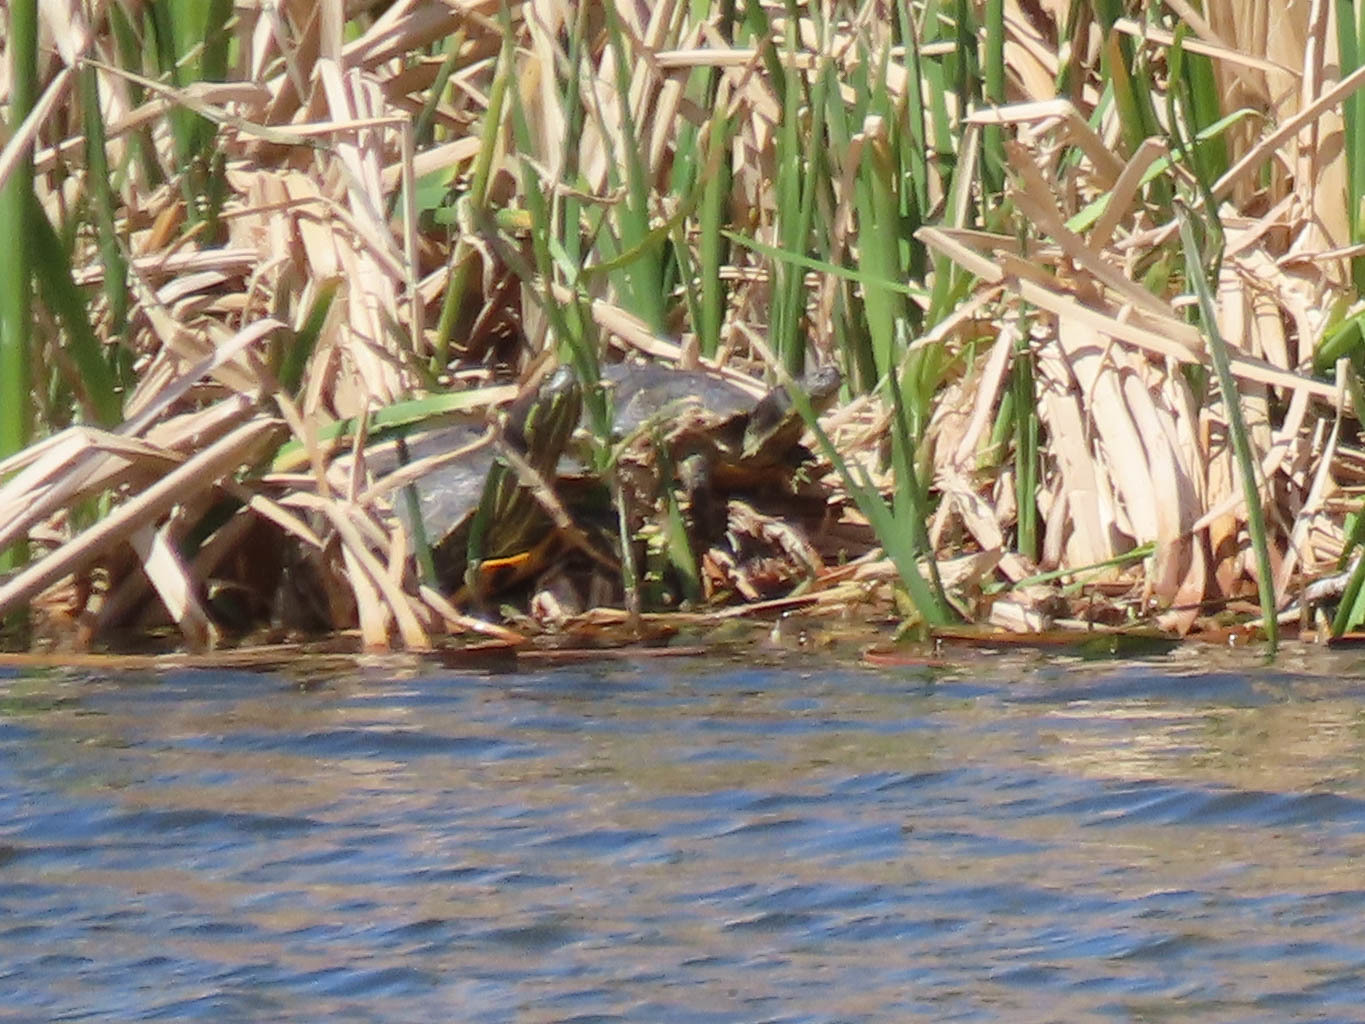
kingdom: Animalia
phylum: Chordata
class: Testudines
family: Emydidae
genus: Trachemys
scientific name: Trachemys scripta
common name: Slider
